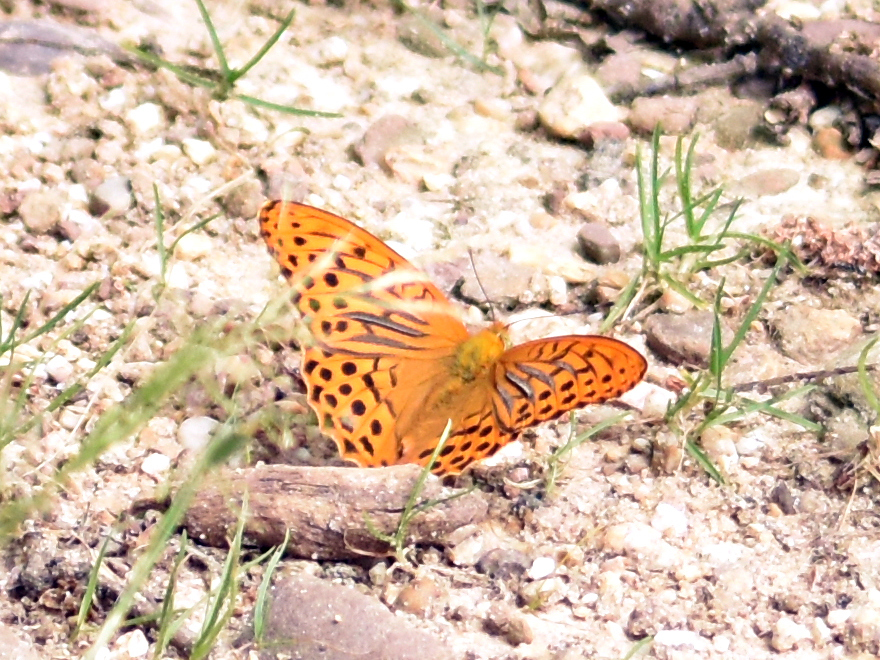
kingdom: Animalia
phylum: Arthropoda
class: Insecta
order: Lepidoptera
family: Nymphalidae
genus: Argynnis
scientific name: Argynnis paphia
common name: Silver-washed fritillary
